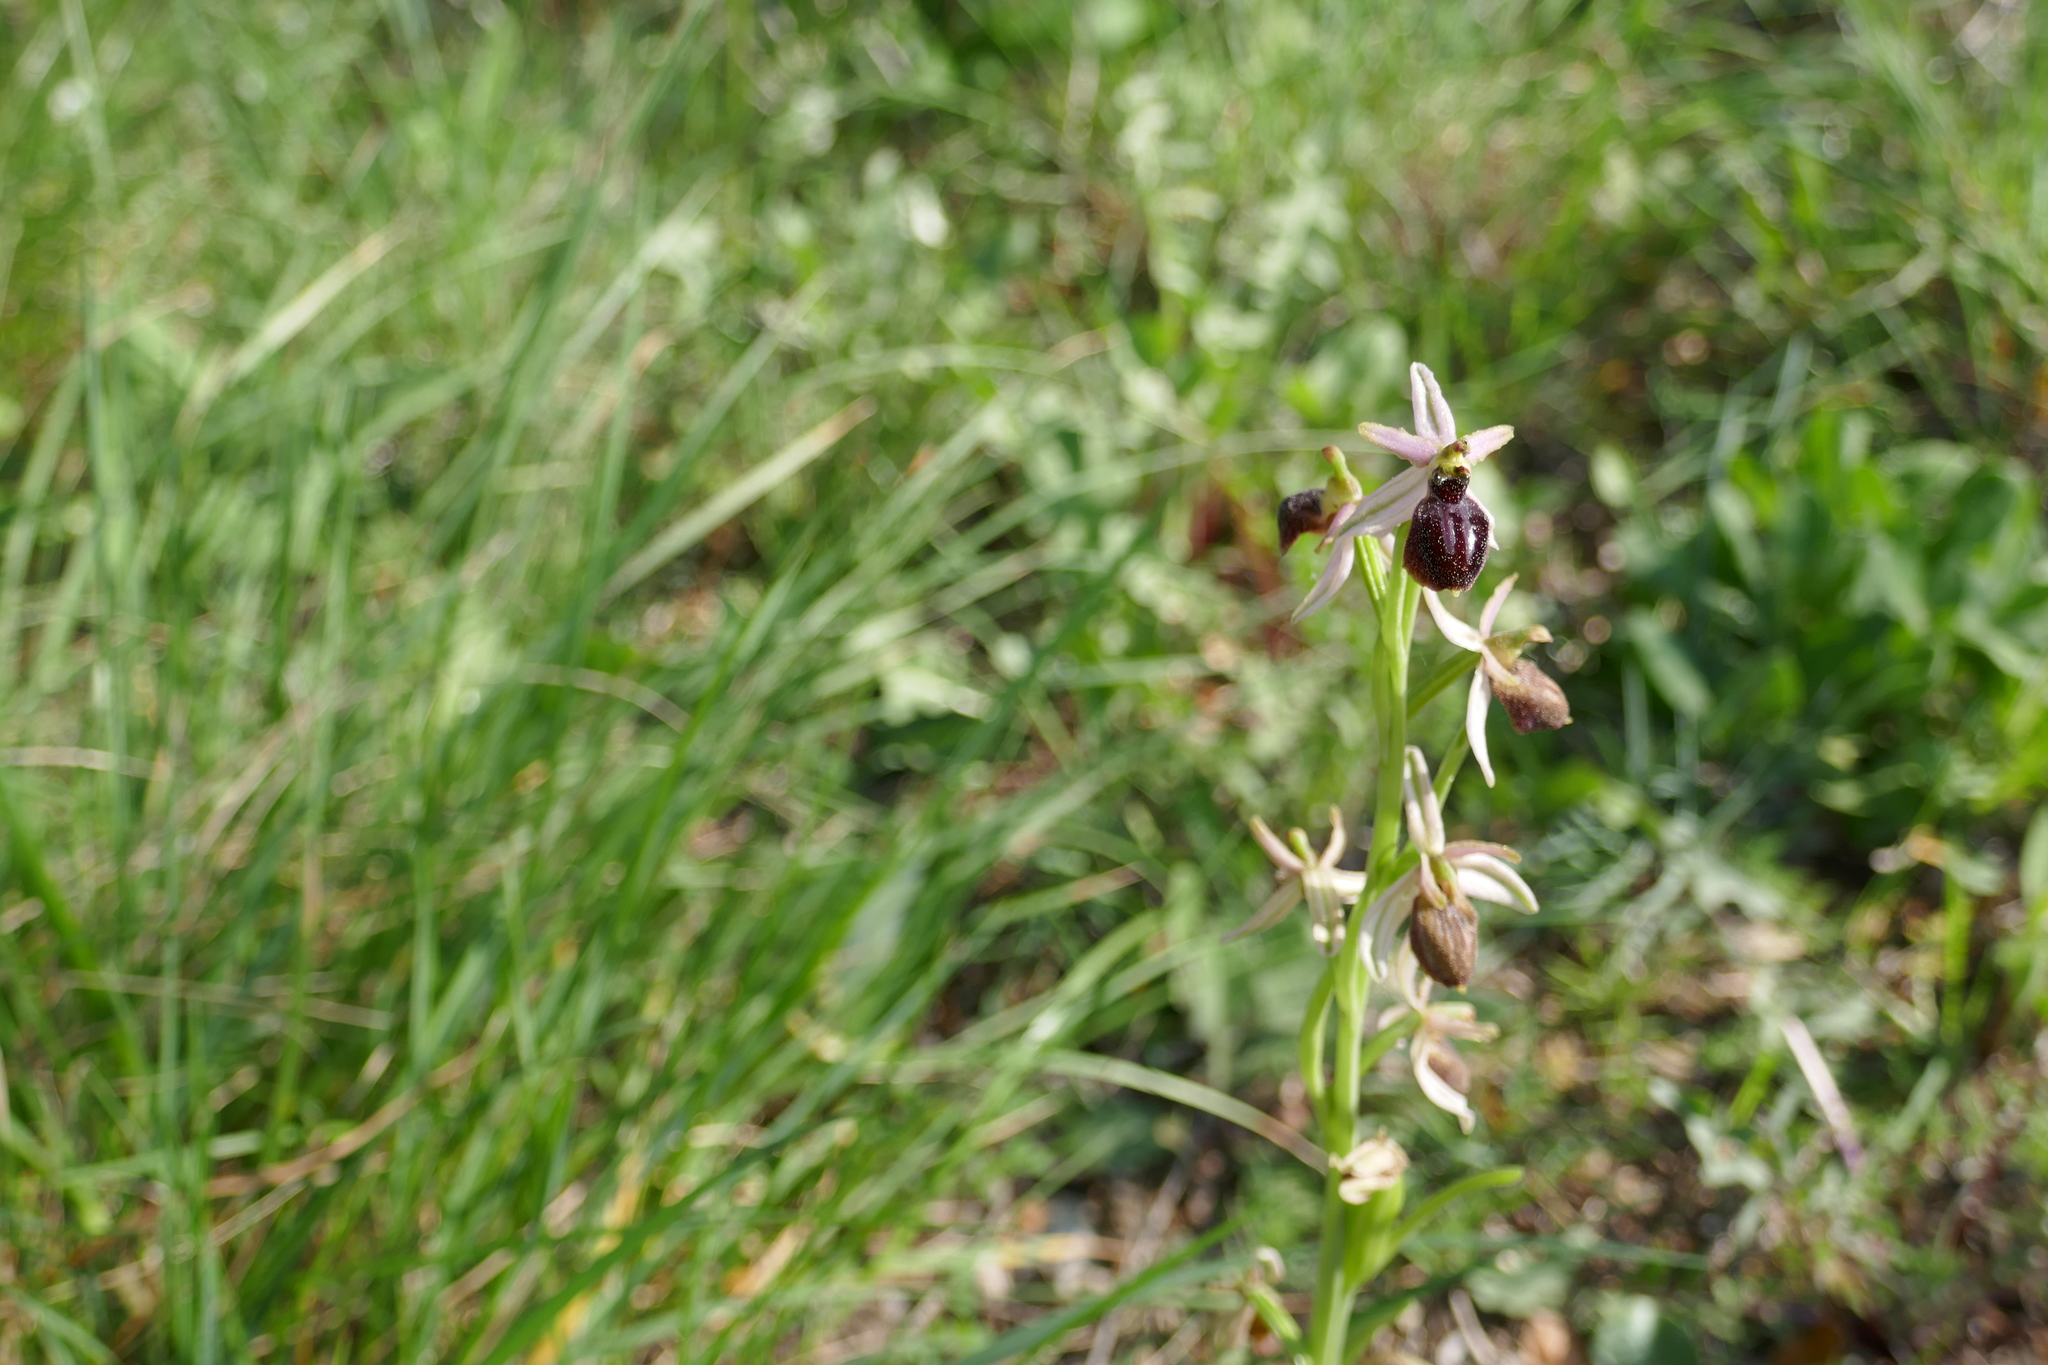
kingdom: Plantae
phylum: Tracheophyta
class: Liliopsida
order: Asparagales
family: Orchidaceae
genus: Ophrys
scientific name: Ophrys arachnitiformis
